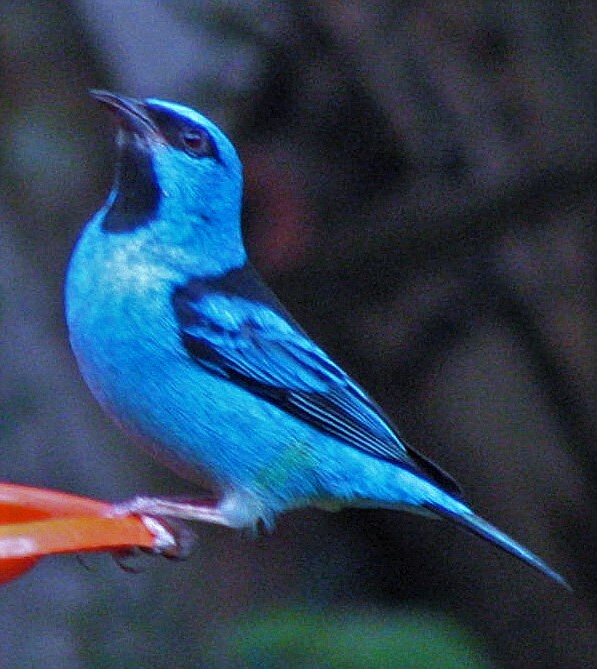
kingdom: Animalia
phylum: Chordata
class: Aves
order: Passeriformes
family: Thraupidae
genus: Dacnis
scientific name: Dacnis cayana
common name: Blue dacnis
